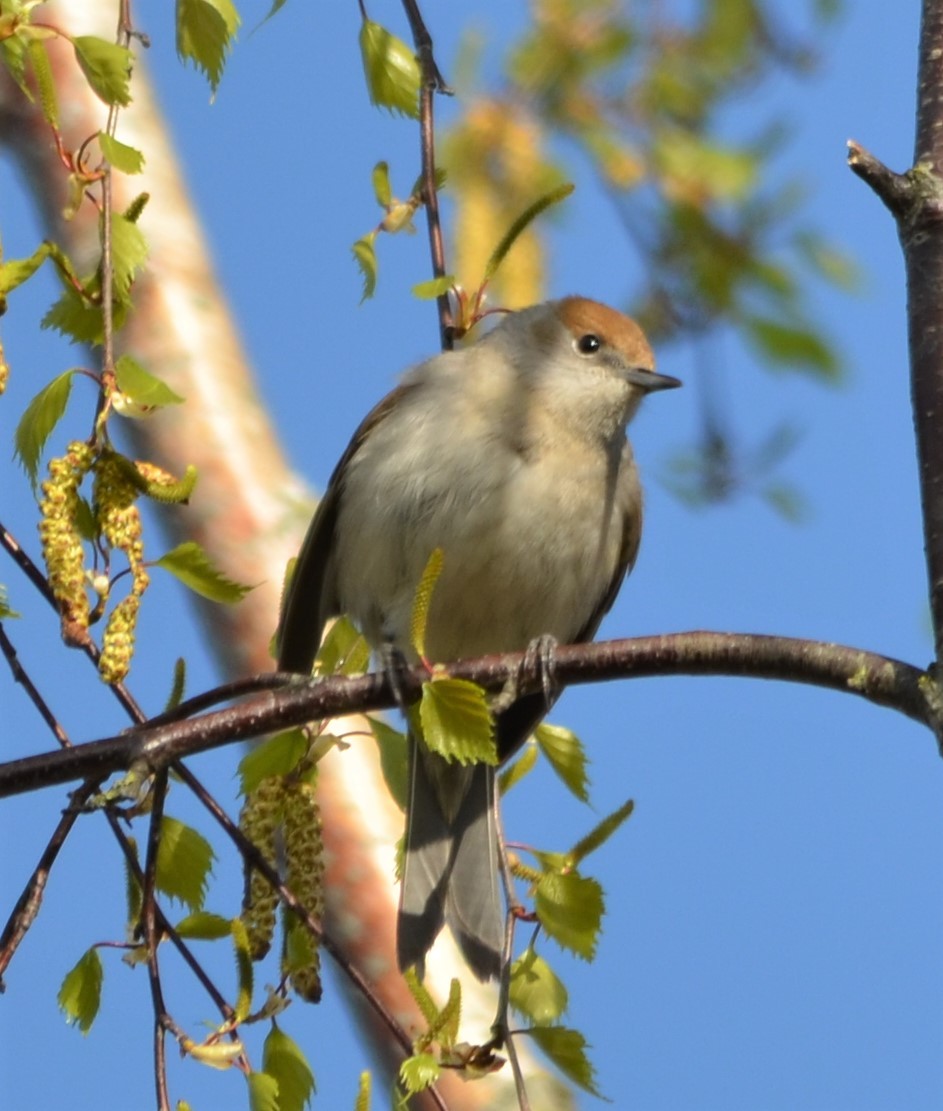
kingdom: Animalia
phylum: Chordata
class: Aves
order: Passeriformes
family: Sylviidae
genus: Sylvia
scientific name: Sylvia atricapilla
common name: Eurasian blackcap
